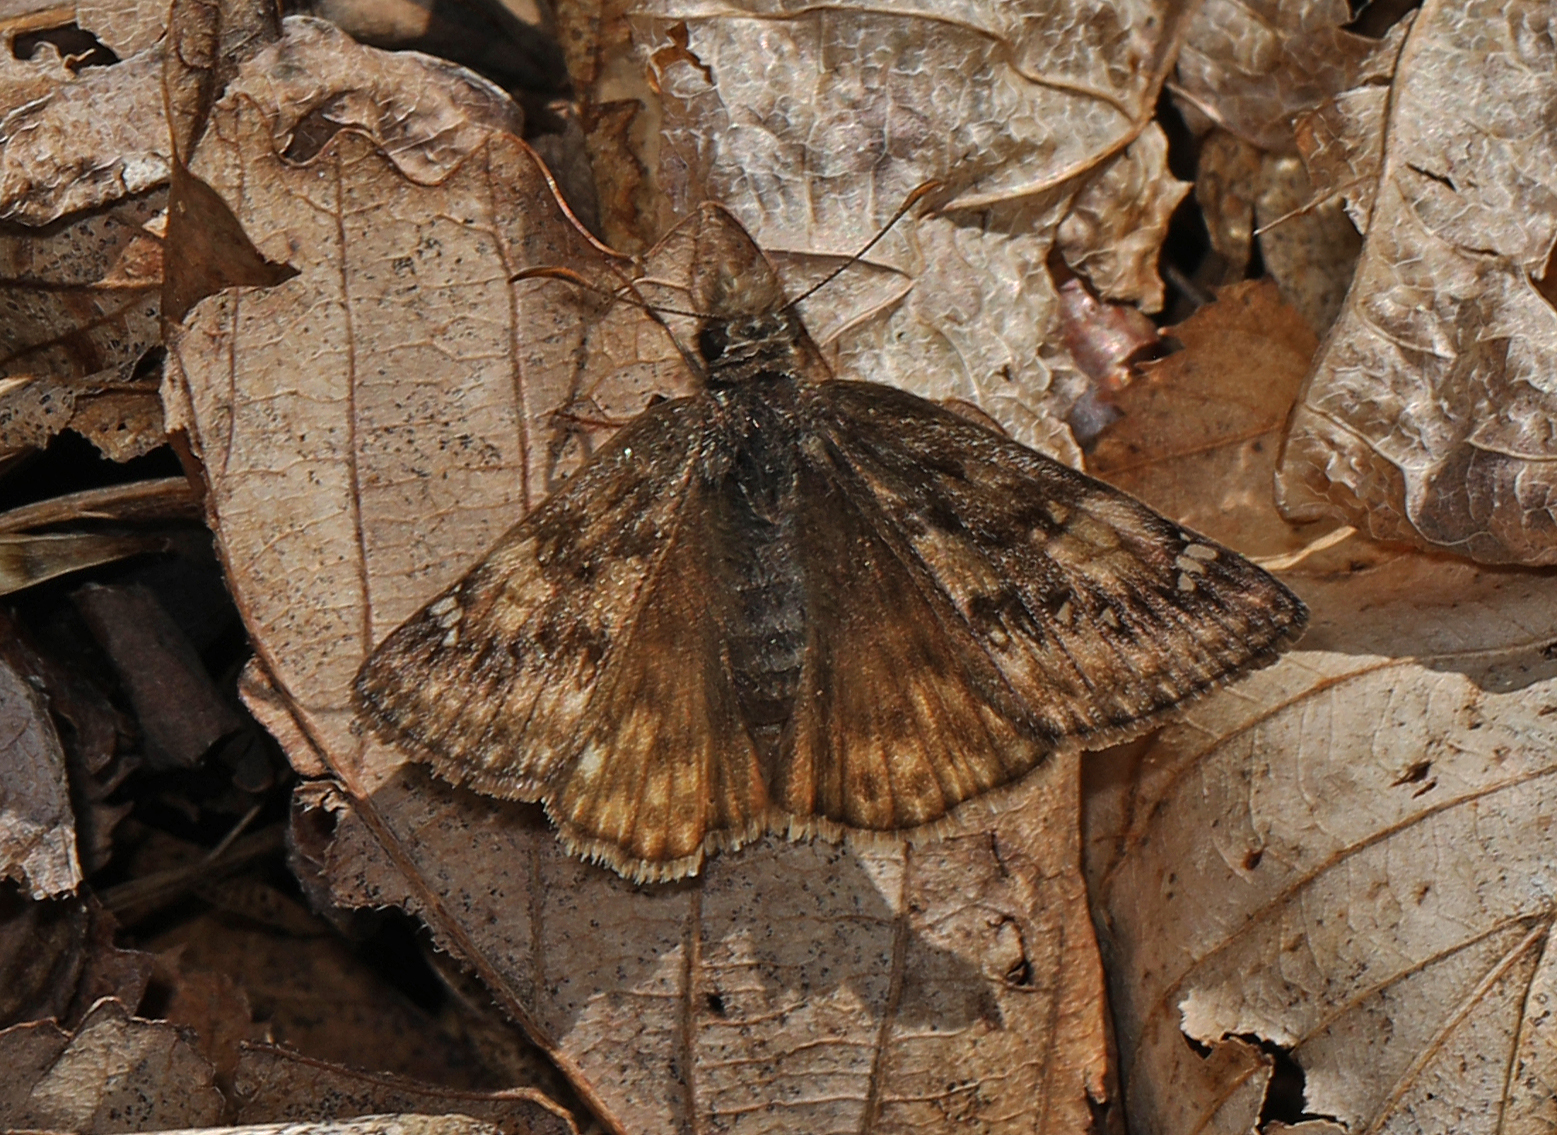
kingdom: Animalia
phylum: Arthropoda
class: Insecta
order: Lepidoptera
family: Hesperiidae
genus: Erynnis
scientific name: Erynnis juvenalis
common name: Juvenal's duskywing
